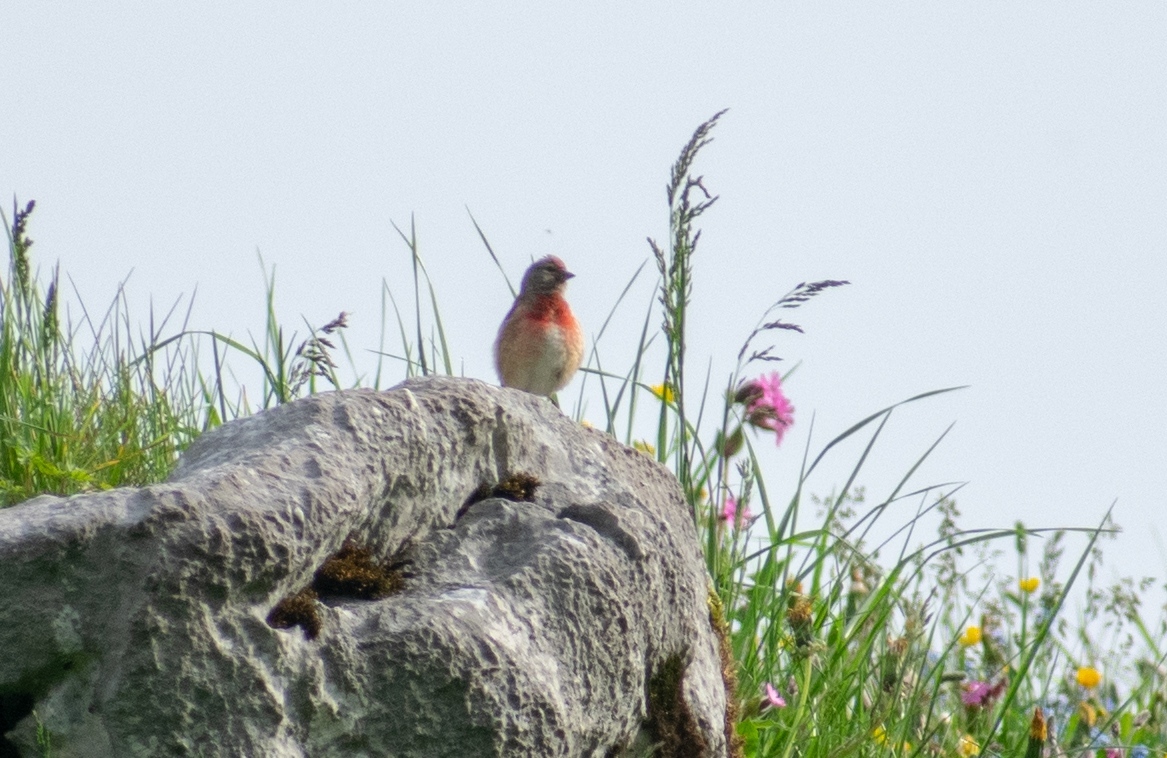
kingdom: Animalia
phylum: Chordata
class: Aves
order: Passeriformes
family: Fringillidae
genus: Linaria
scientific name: Linaria cannabina
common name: Common linnet
